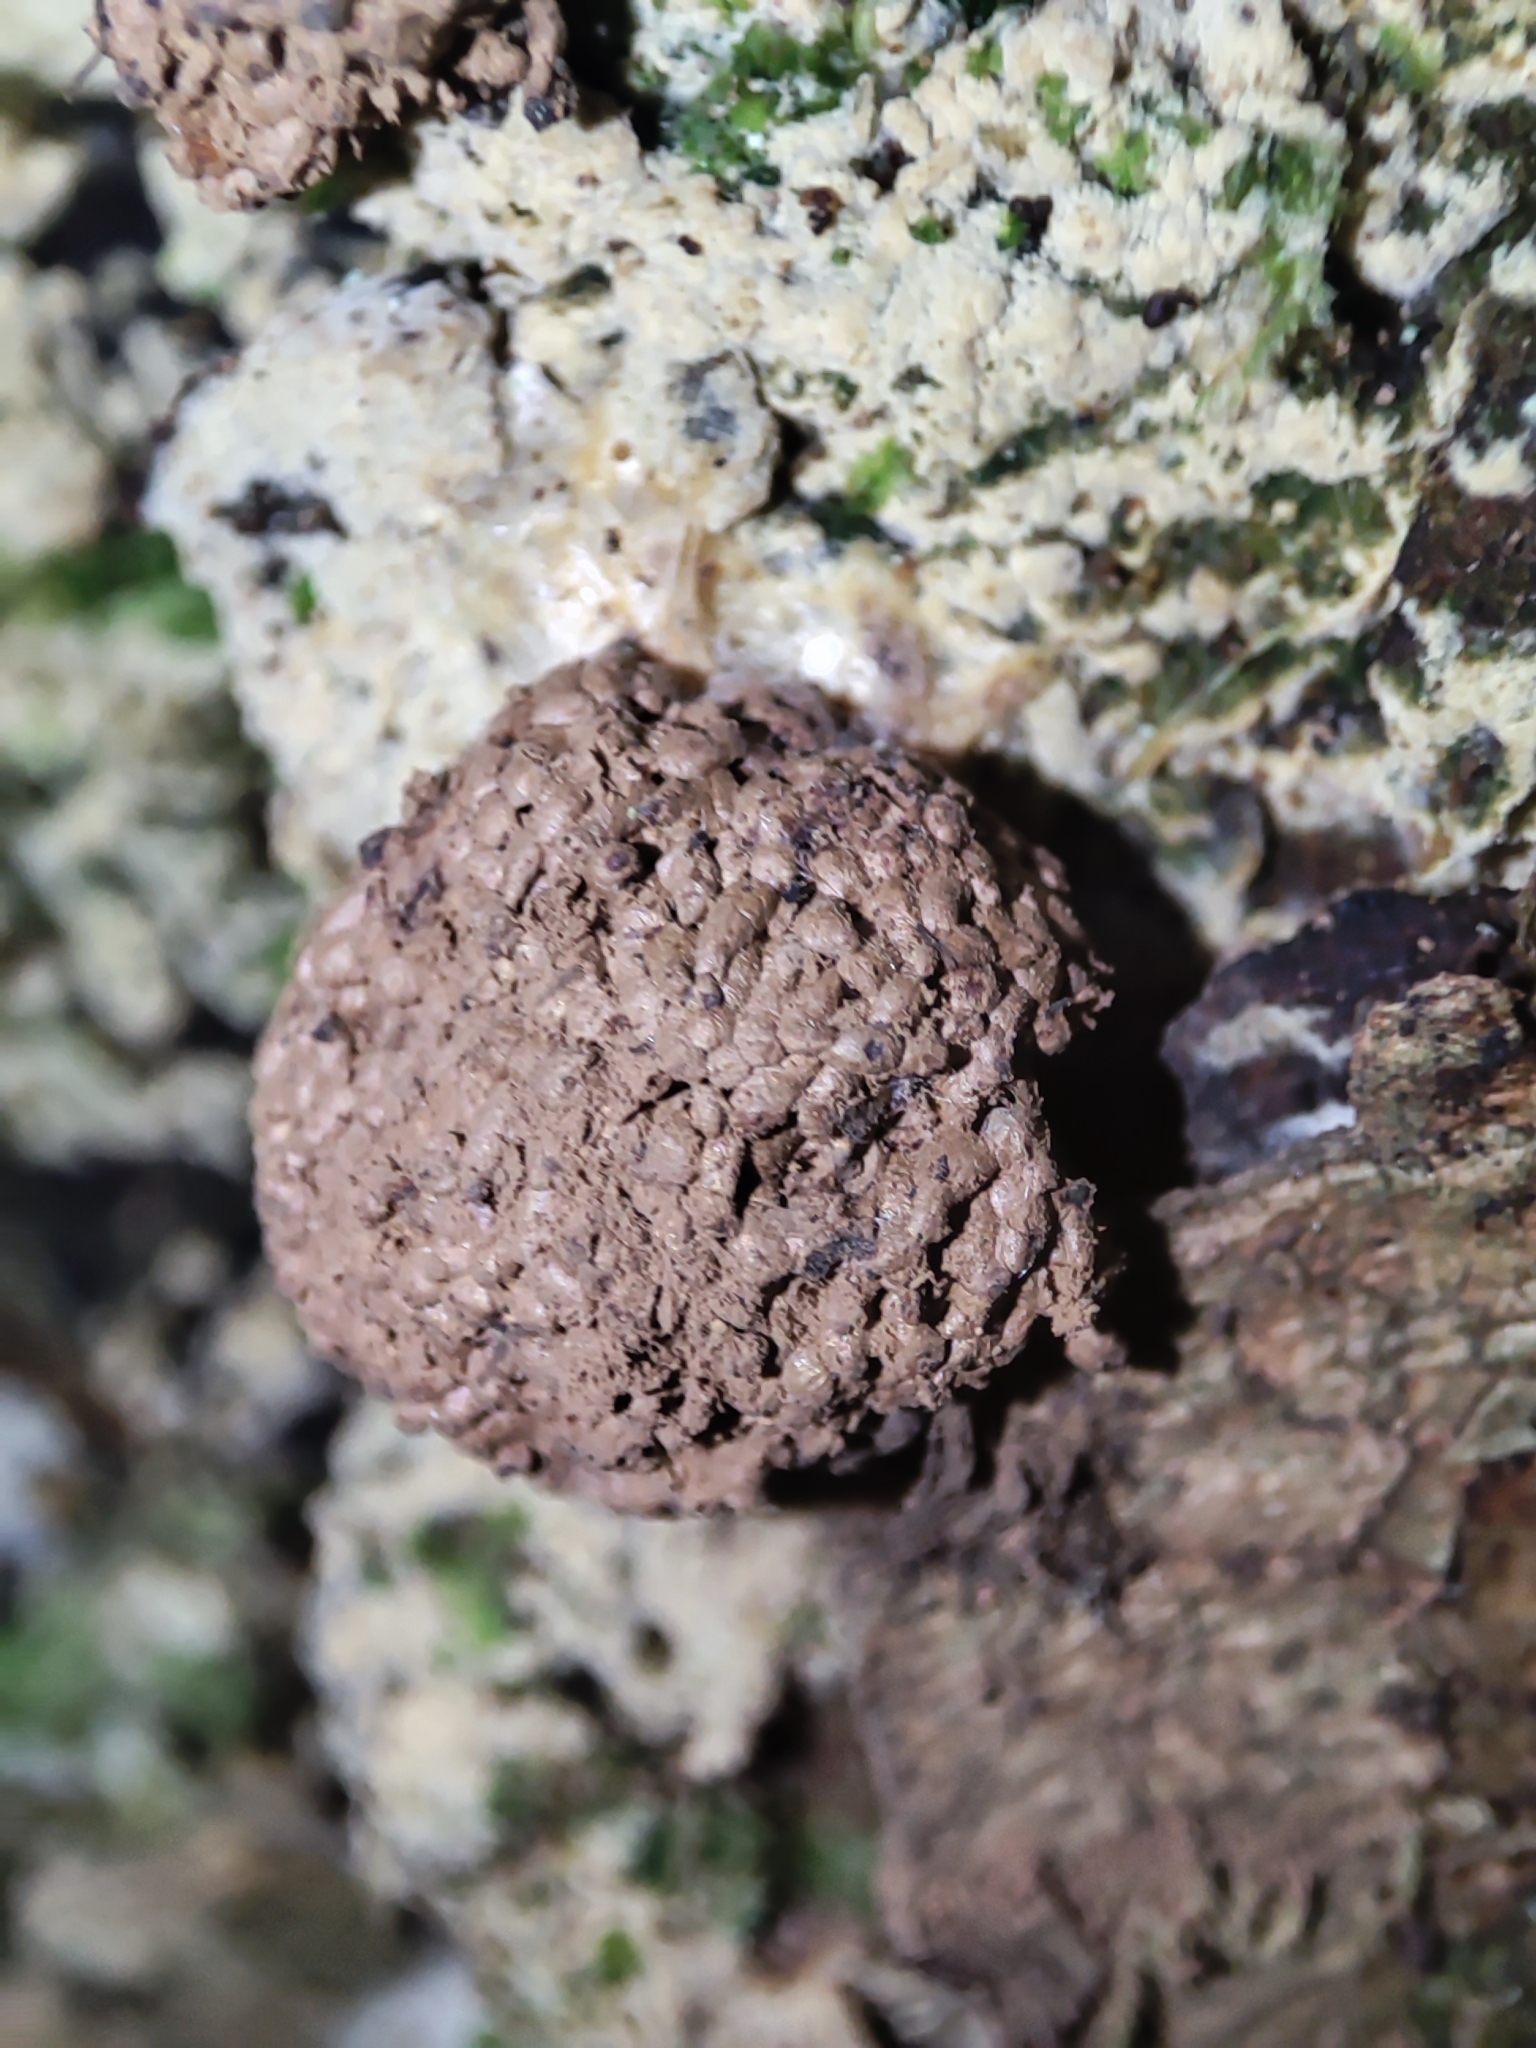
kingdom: Protozoa
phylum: Mycetozoa
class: Myxomycetes
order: Cribrariales
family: Tubiferaceae
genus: Tubifera
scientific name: Tubifera ferruginosa
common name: Red raspberry slime mold
